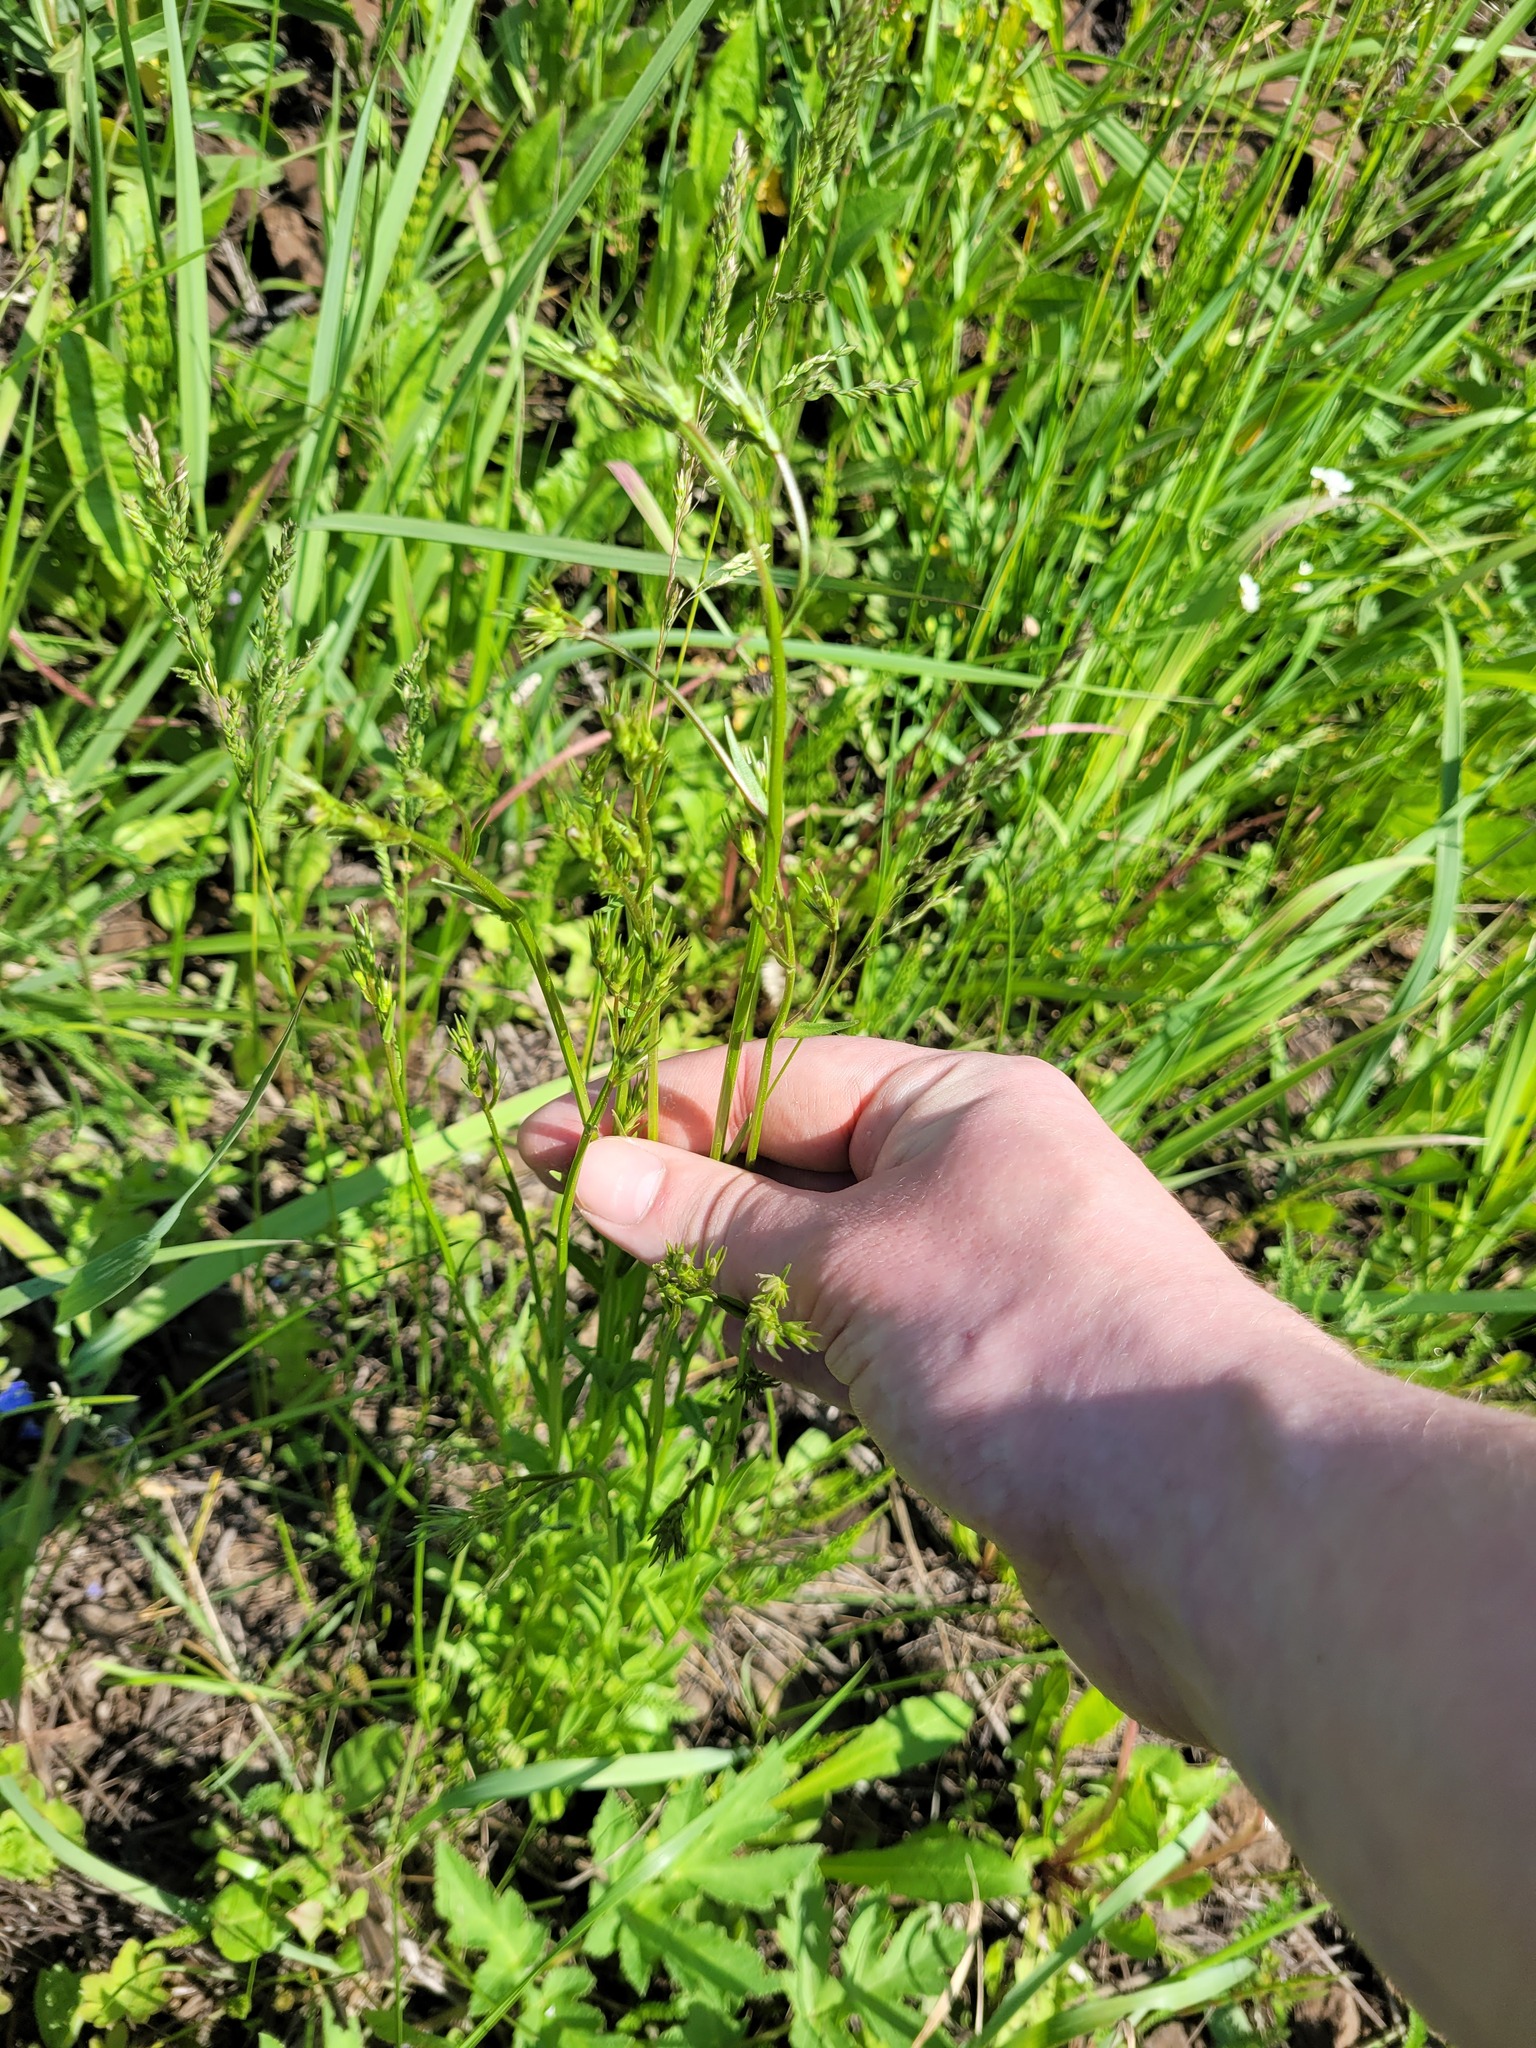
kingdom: Plantae
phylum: Tracheophyta
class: Magnoliopsida
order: Asterales
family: Campanulaceae
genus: Campanula
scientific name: Campanula patula
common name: Spreading bellflower
